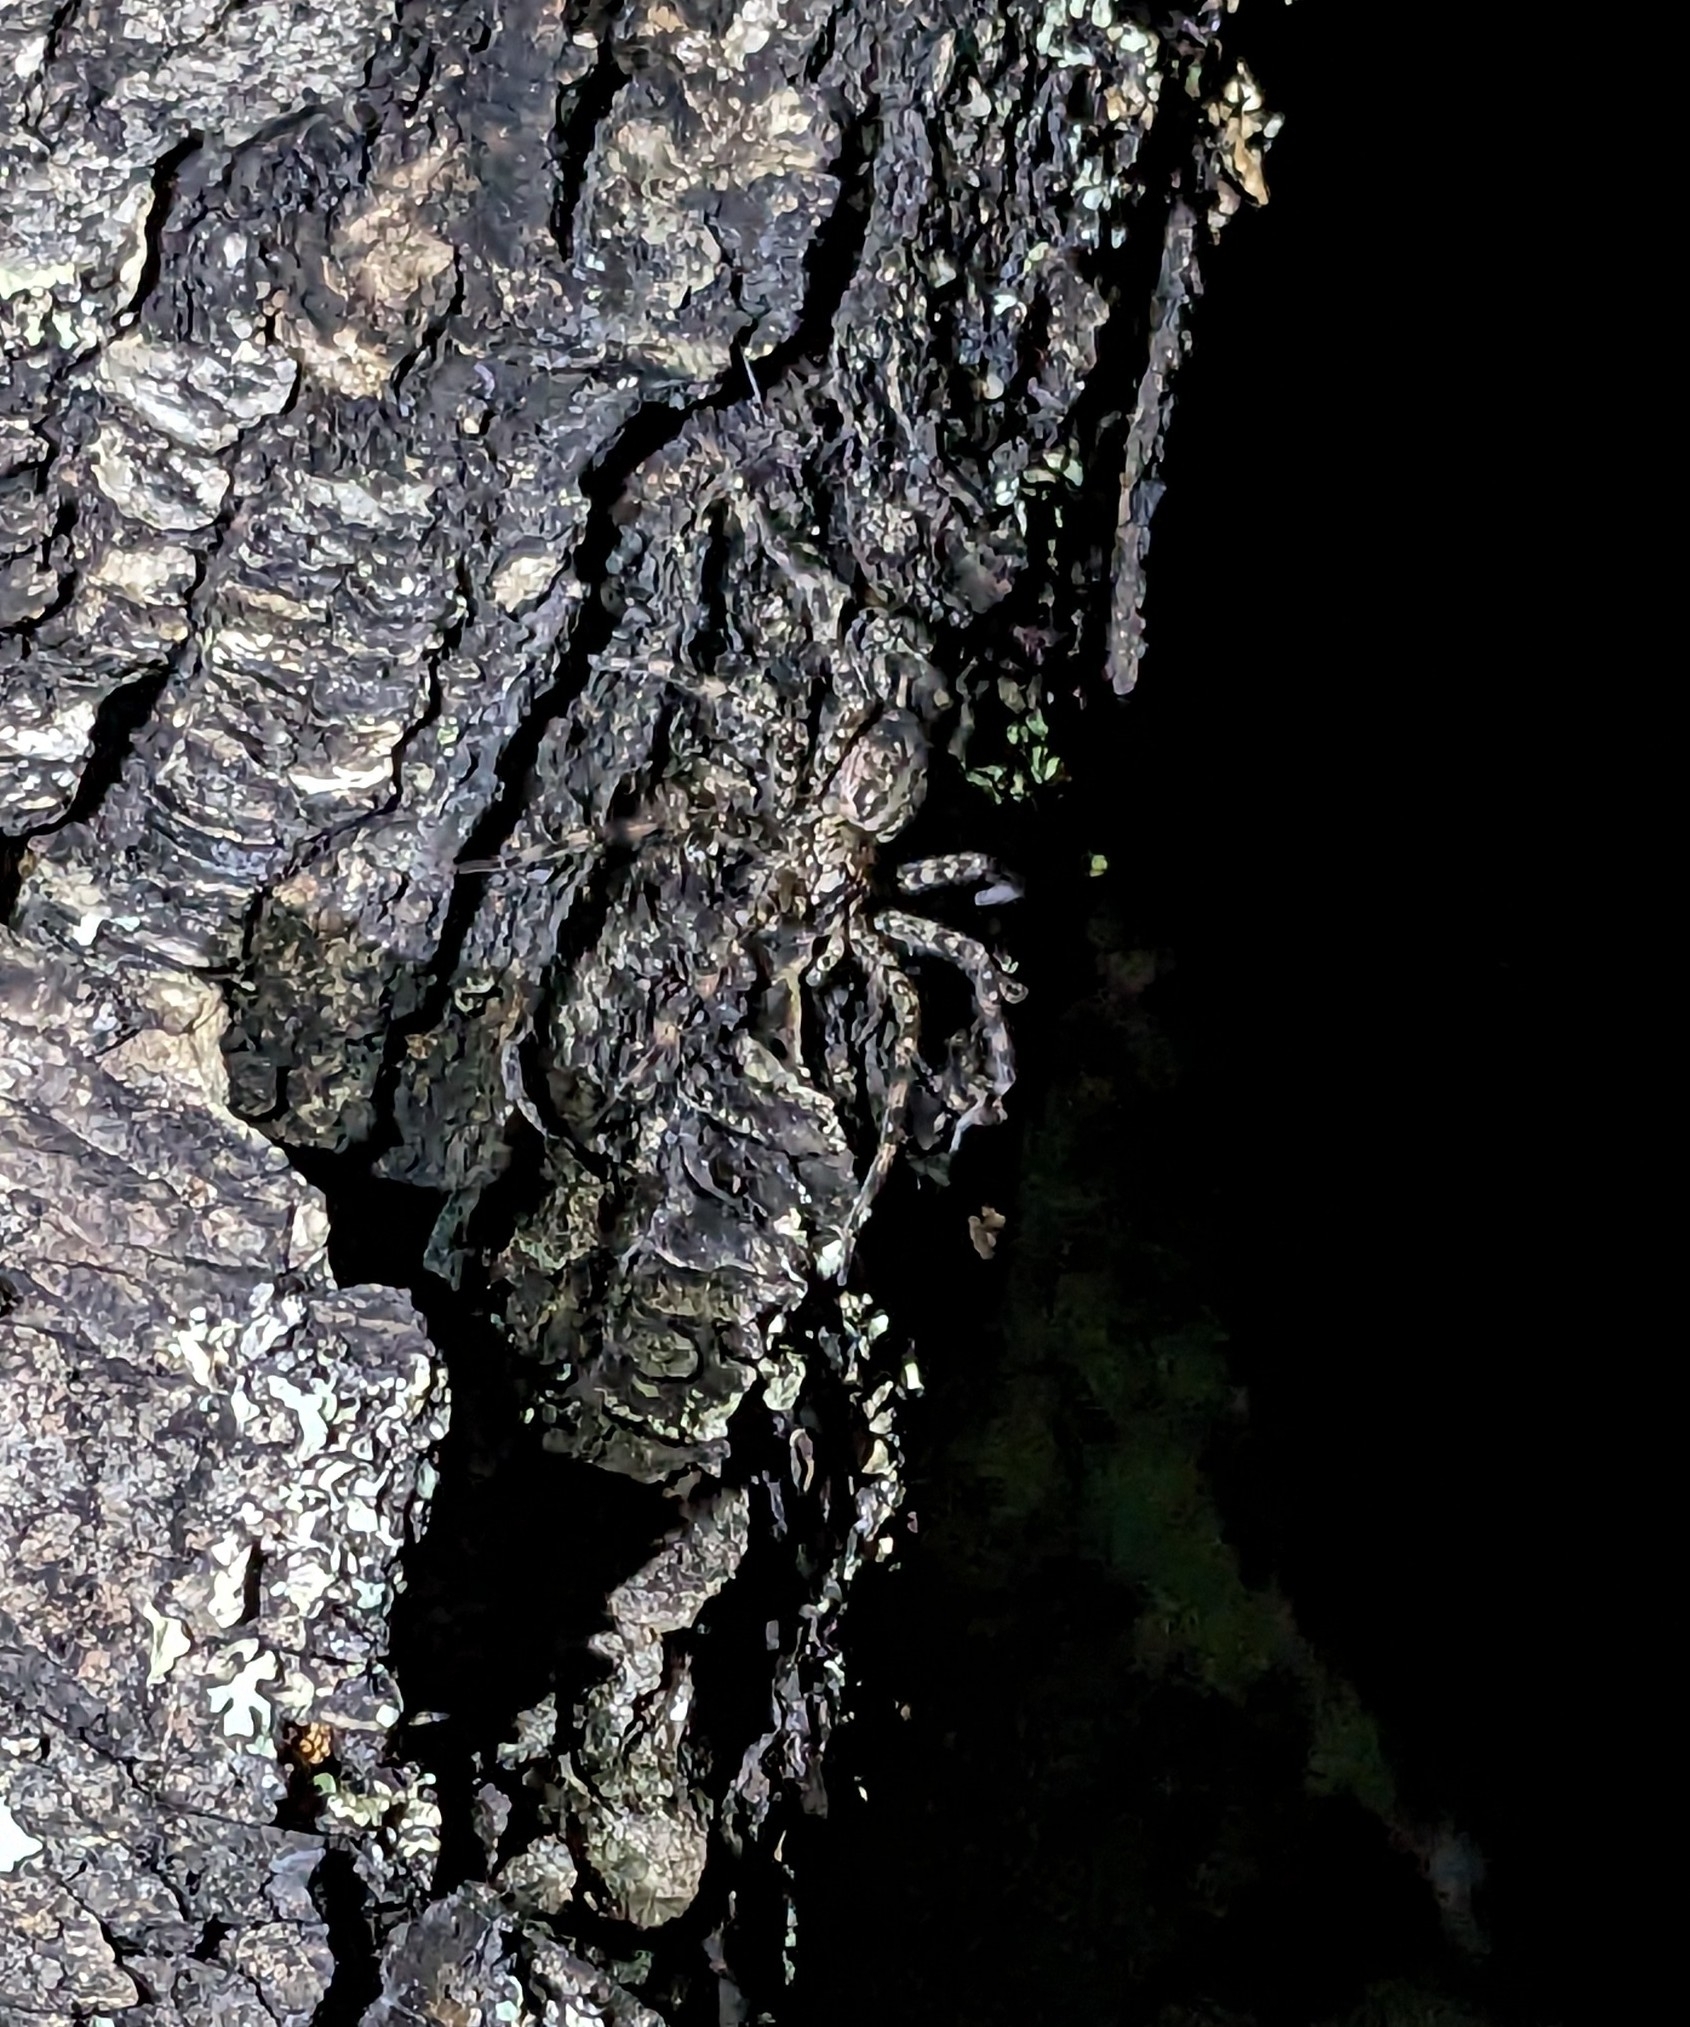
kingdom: Animalia
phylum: Arthropoda
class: Arachnida
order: Araneae
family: Pisauridae
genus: Dolomedes
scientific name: Dolomedes tenebrosus
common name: Dark fishing spider
